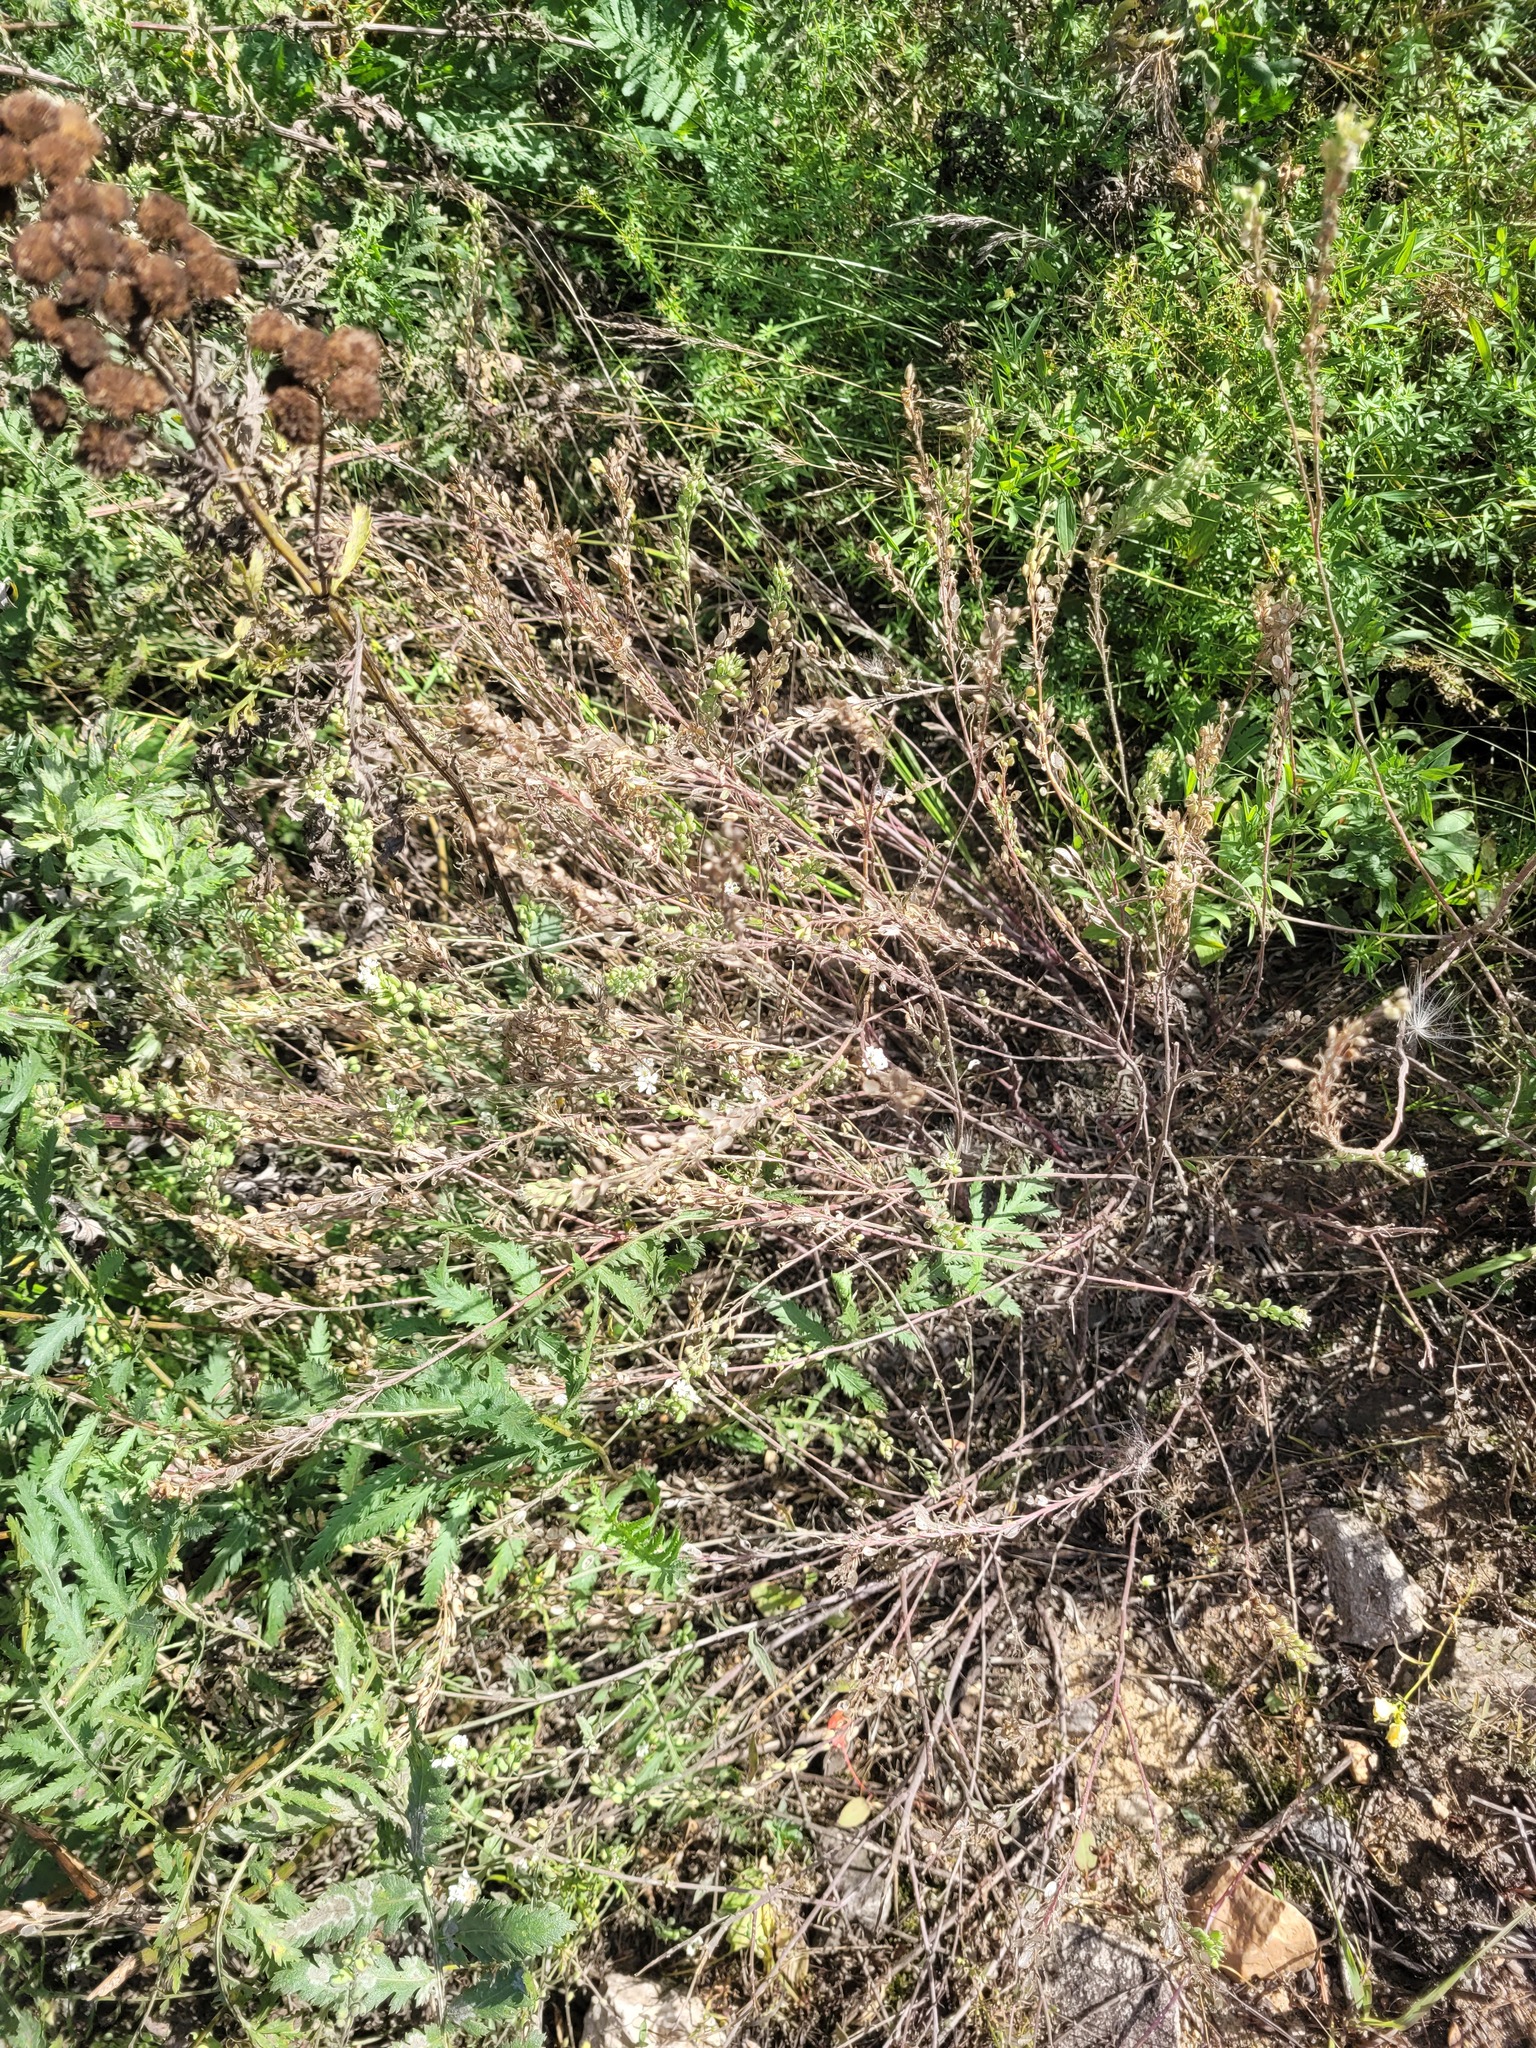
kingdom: Plantae
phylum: Tracheophyta
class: Magnoliopsida
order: Brassicales
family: Brassicaceae
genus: Berteroa
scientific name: Berteroa incana
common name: Hoary alison
